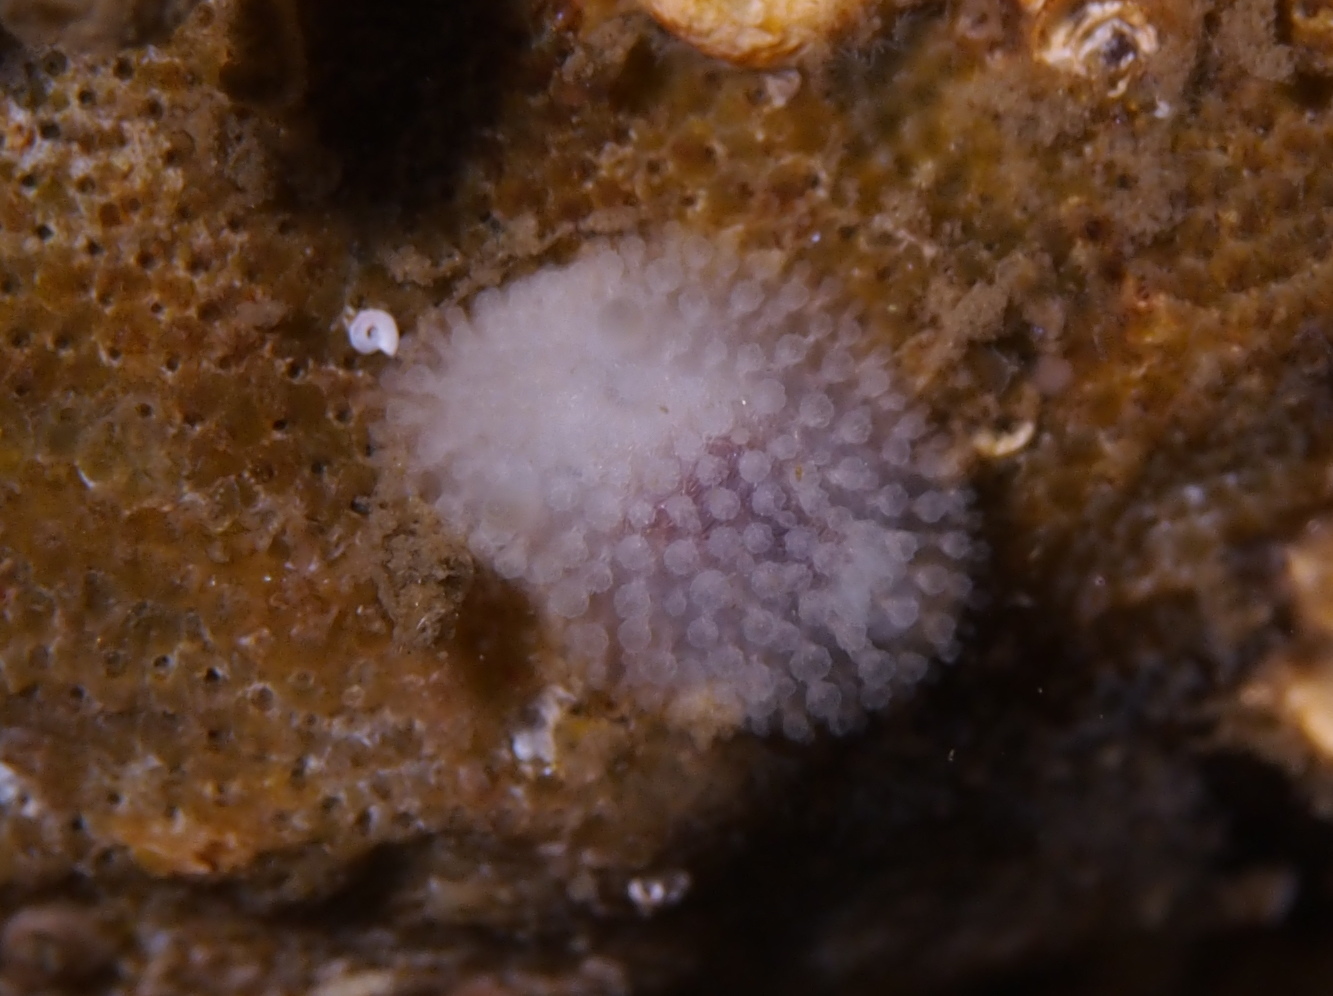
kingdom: Animalia
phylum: Mollusca
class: Gastropoda
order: Nudibranchia
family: Onchidorididae
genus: Onchidoris
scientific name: Onchidoris muricata
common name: Rough doris
